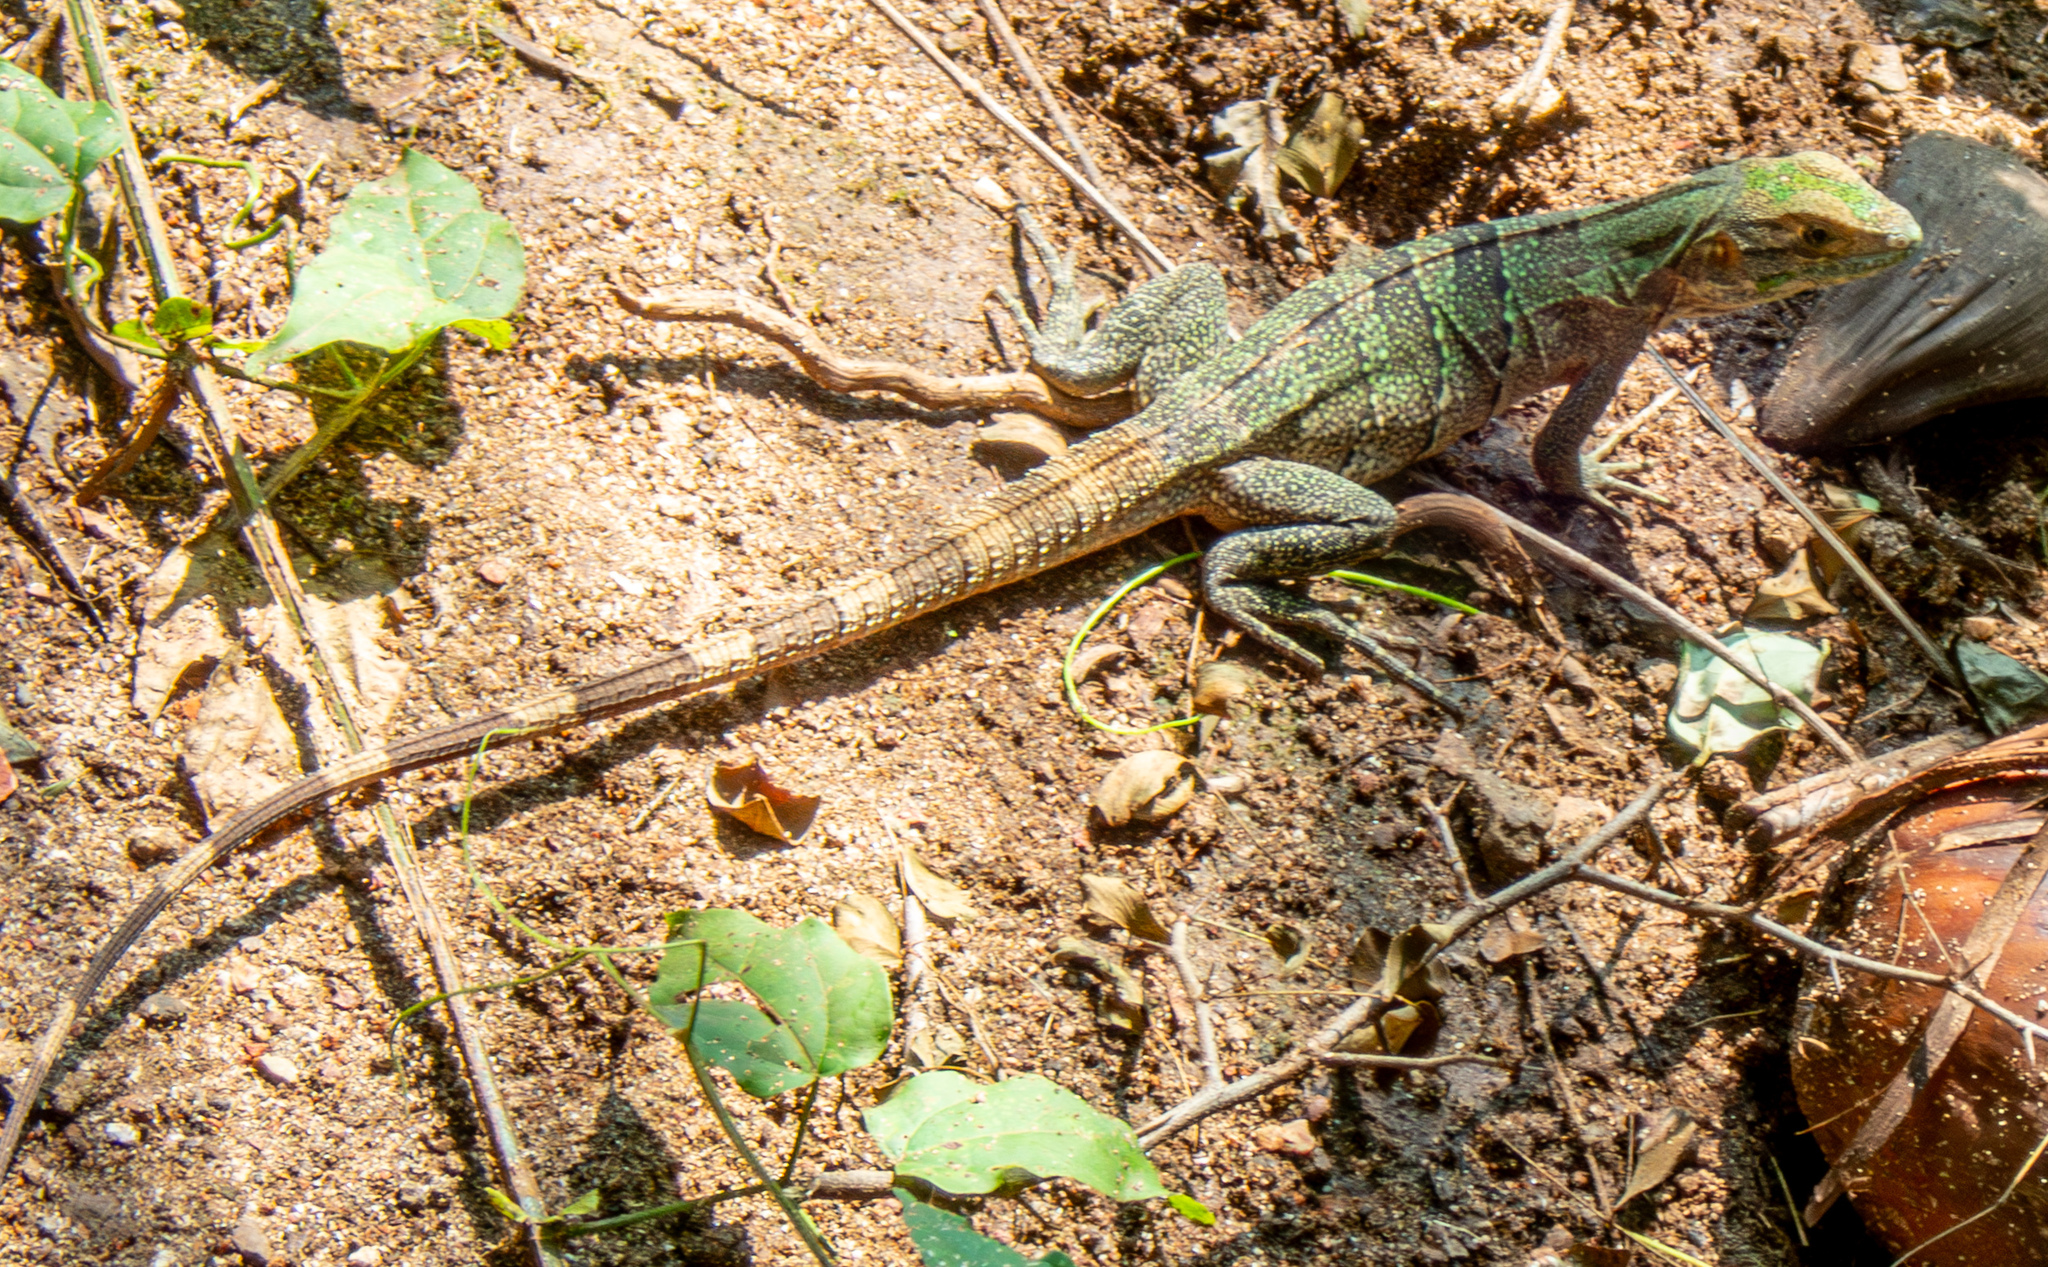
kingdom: Animalia
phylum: Chordata
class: Squamata
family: Iguanidae
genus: Ctenosaura
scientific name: Ctenosaura similis
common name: Black spiny-tailed iguana
